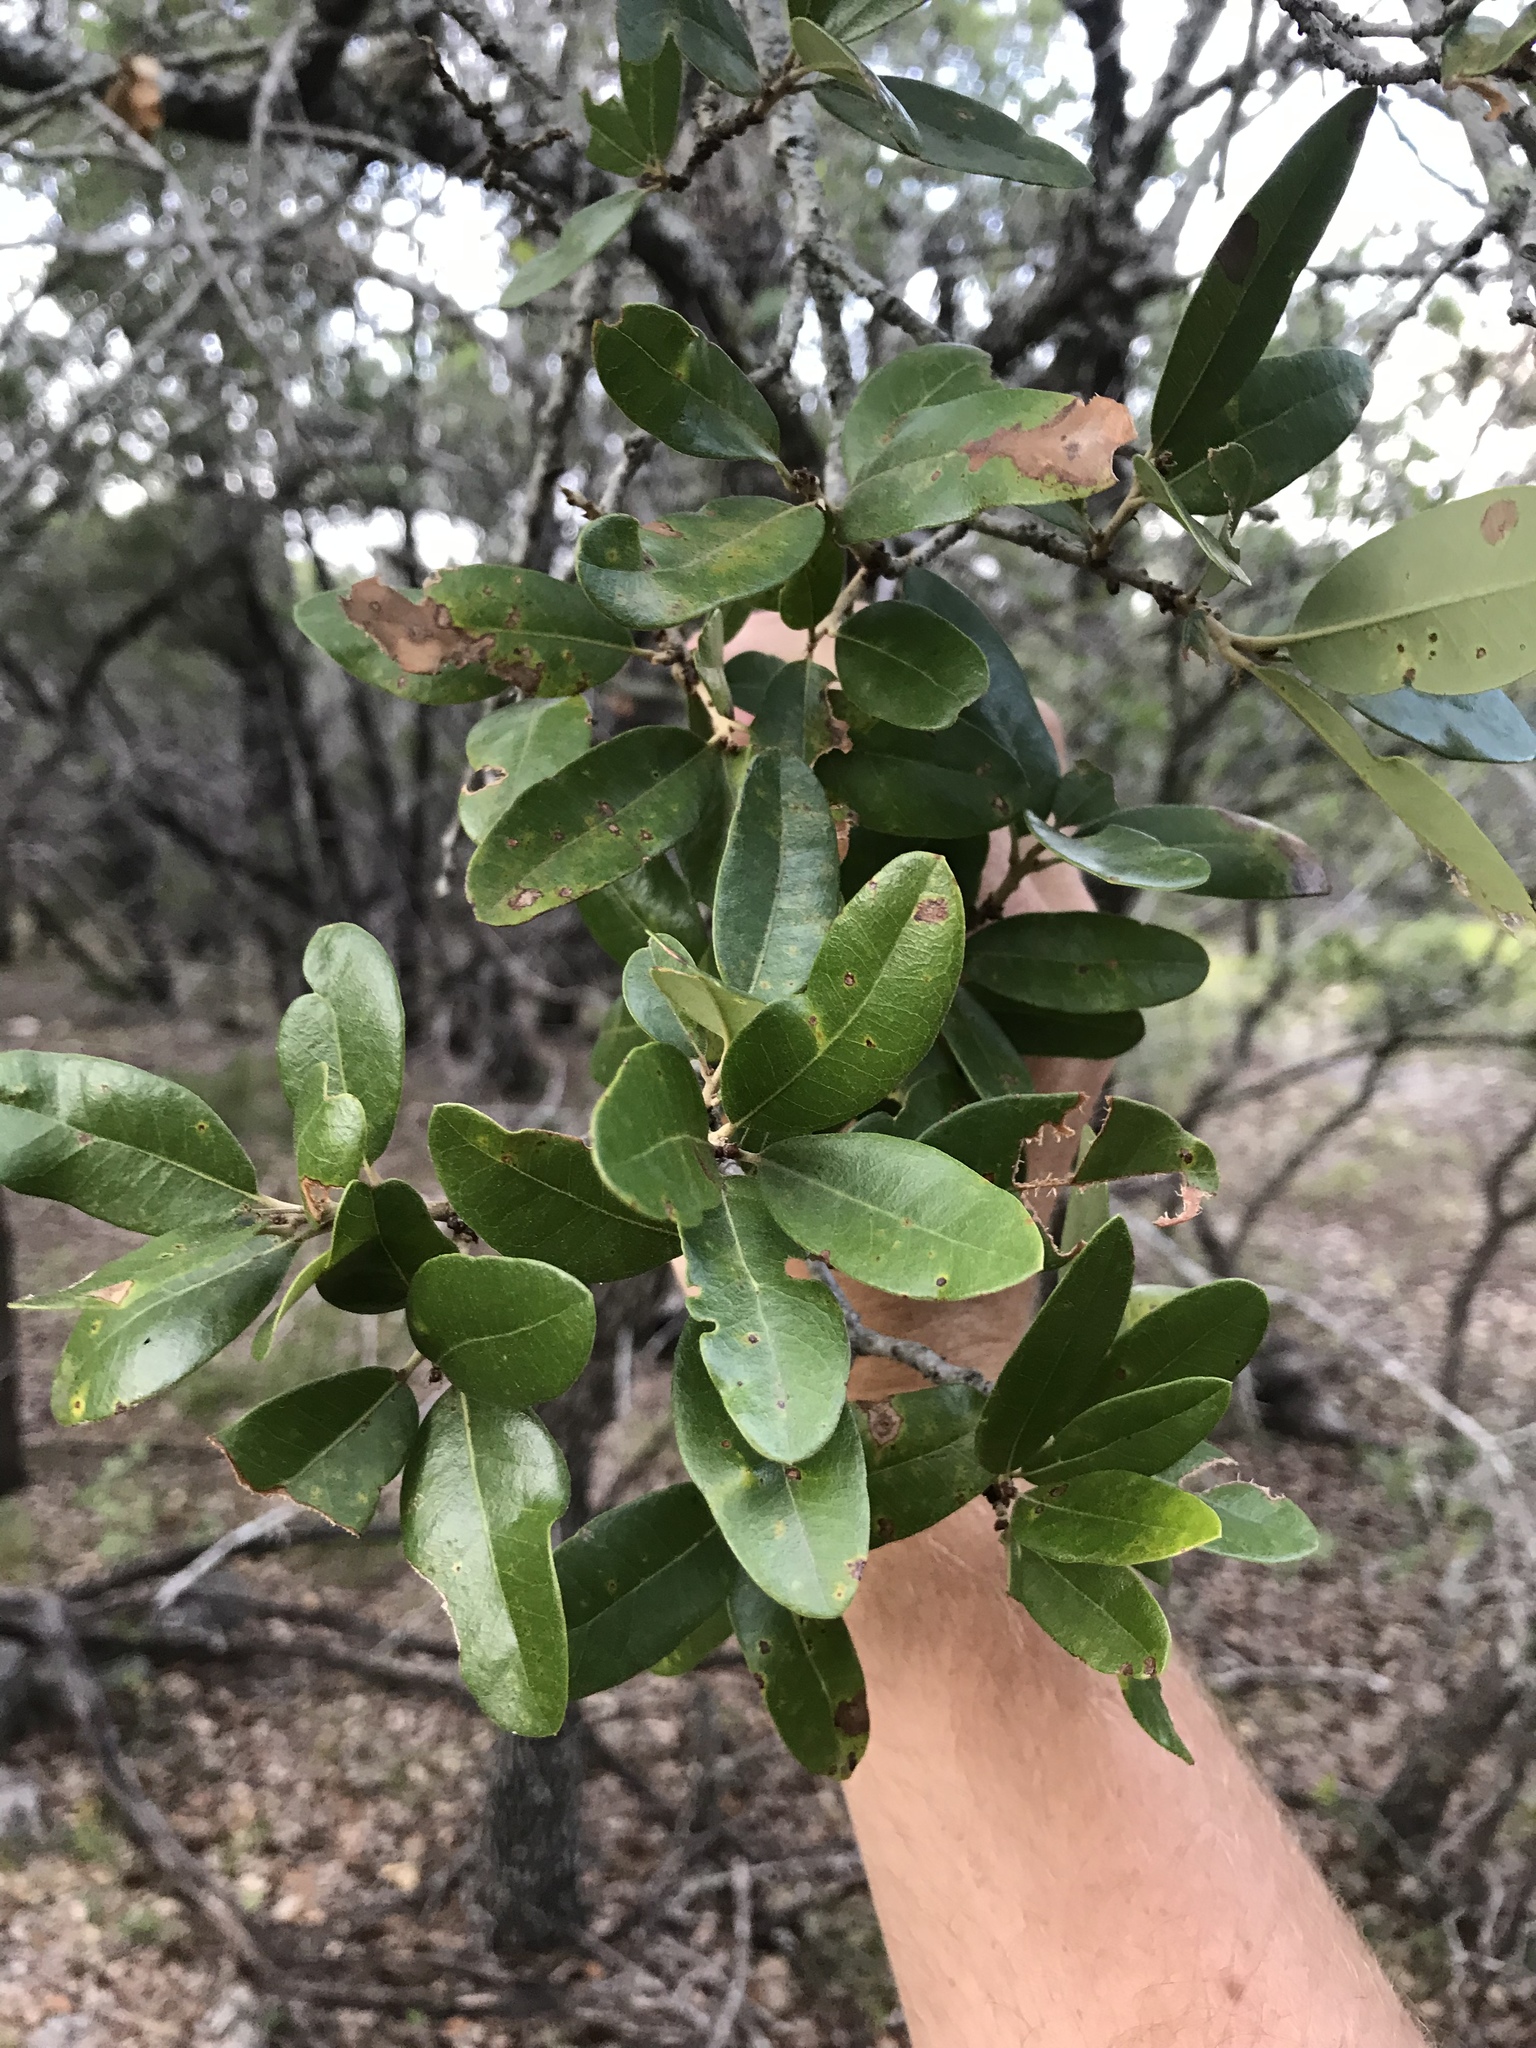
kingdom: Plantae
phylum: Tracheophyta
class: Magnoliopsida
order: Fagales
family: Fagaceae
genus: Quercus
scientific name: Quercus fusiformis
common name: Texas live oak
